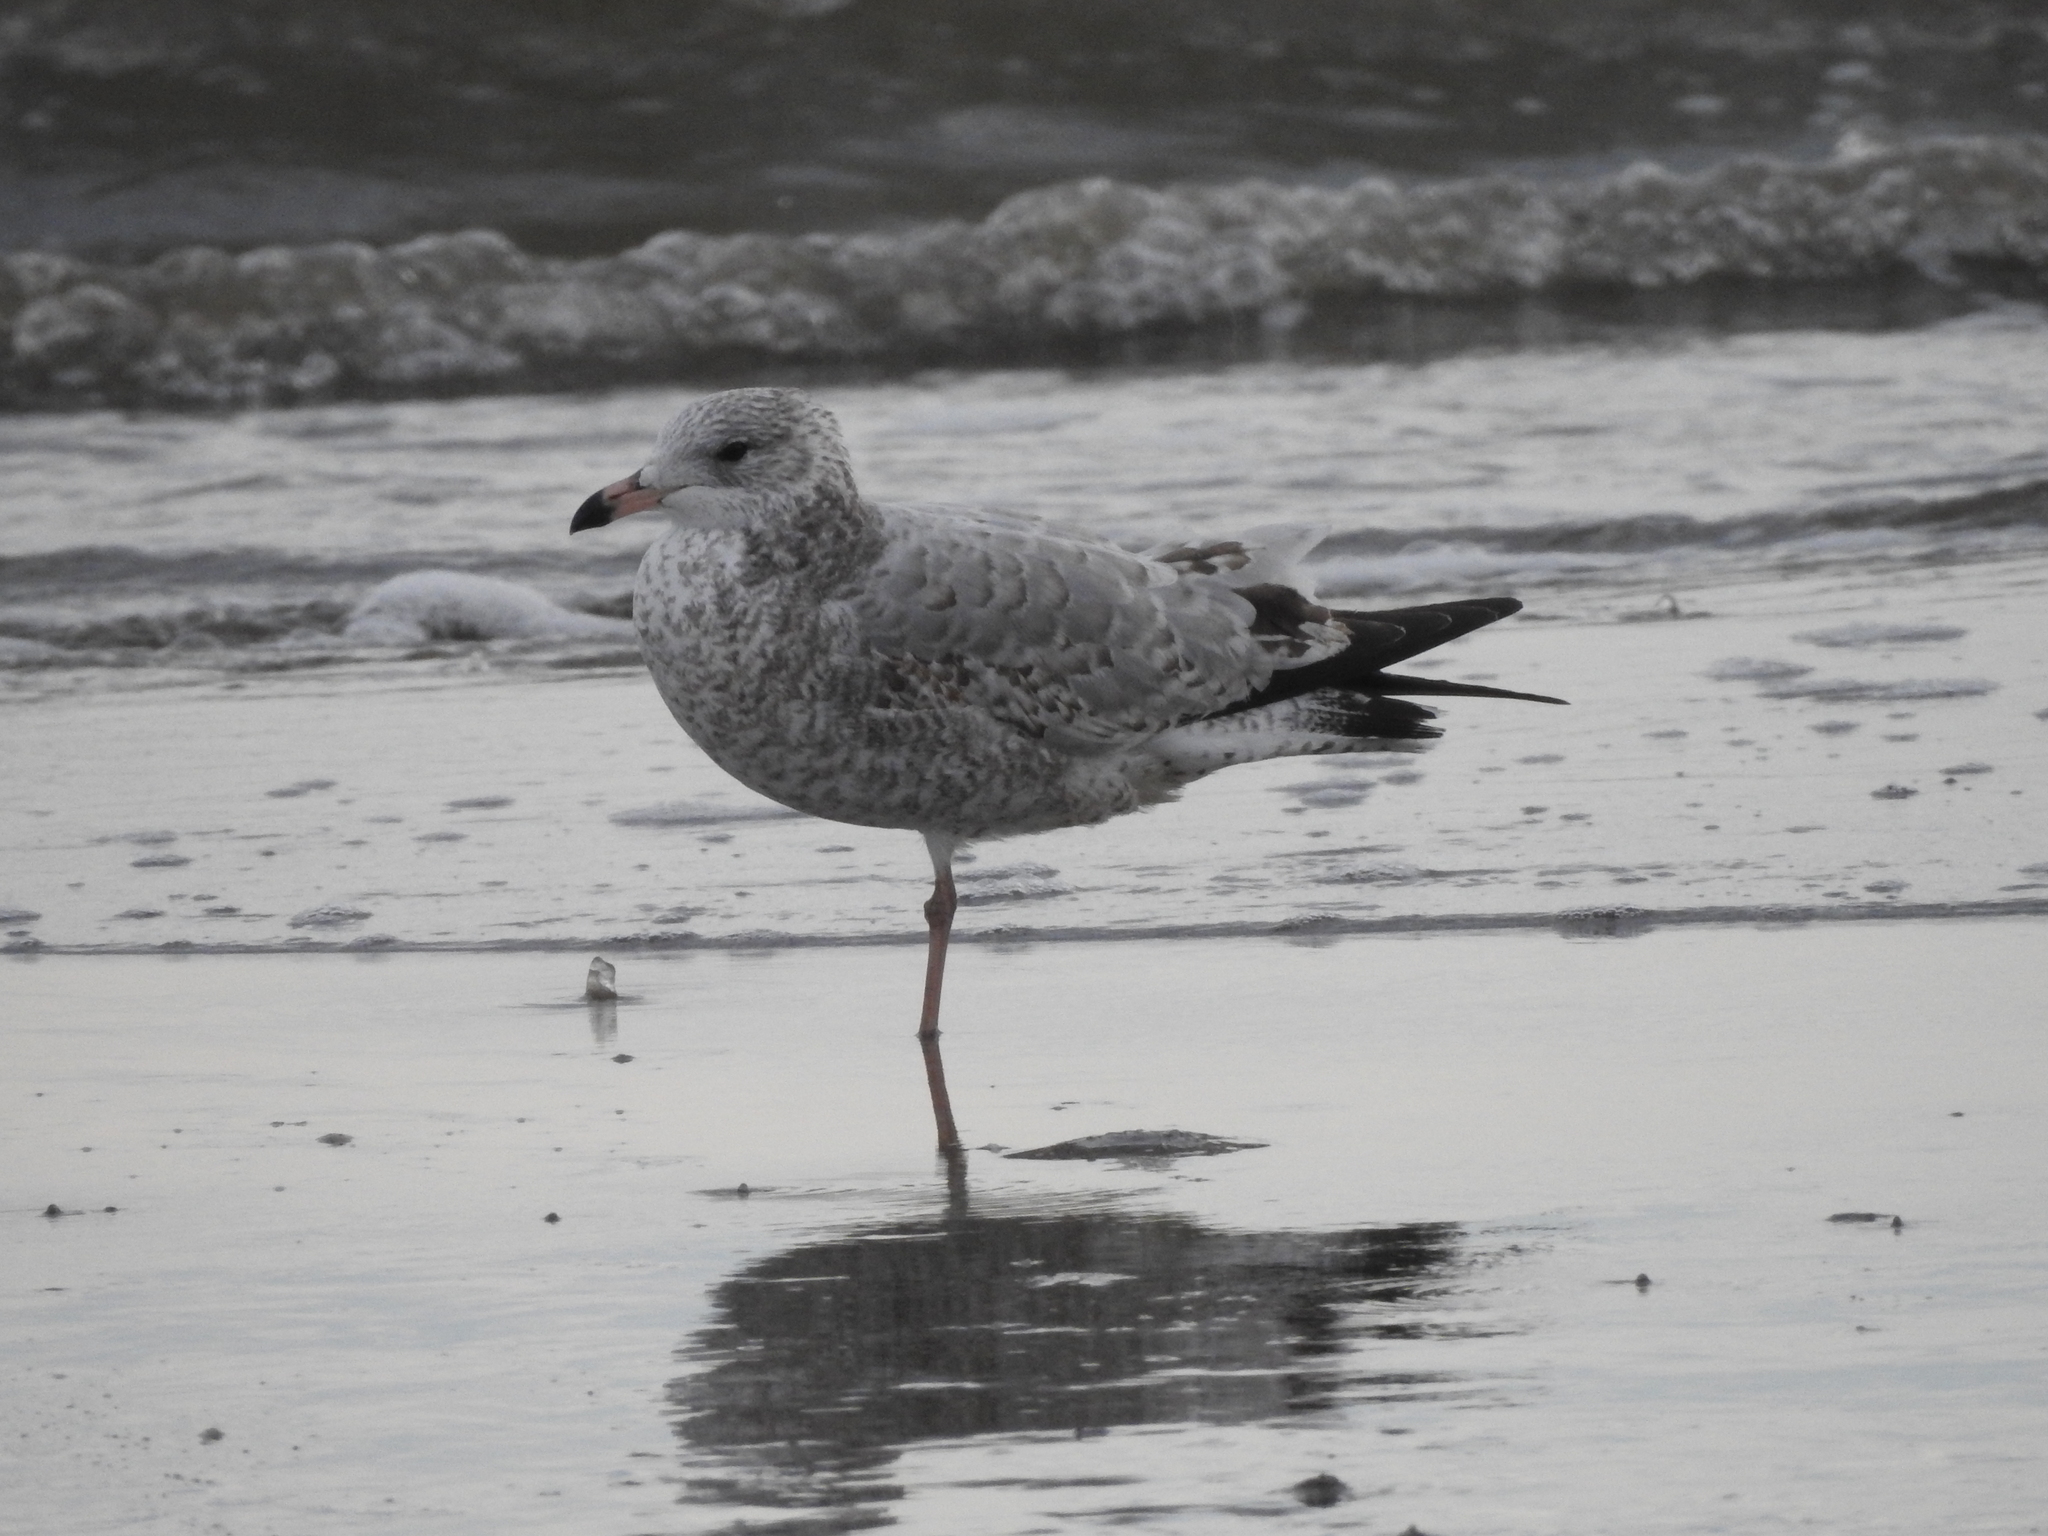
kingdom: Animalia
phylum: Chordata
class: Aves
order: Charadriiformes
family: Laridae
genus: Larus
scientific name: Larus delawarensis
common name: Ring-billed gull
